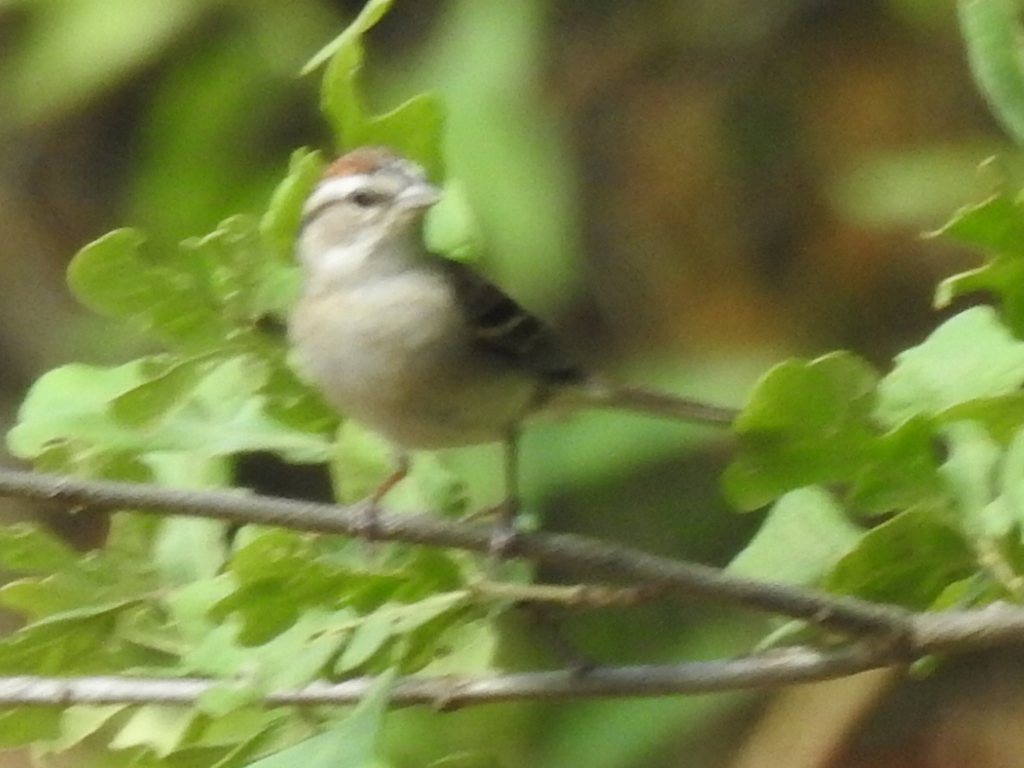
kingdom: Animalia
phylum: Chordata
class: Aves
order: Passeriformes
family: Passerellidae
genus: Spizella
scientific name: Spizella passerina
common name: Chipping sparrow
